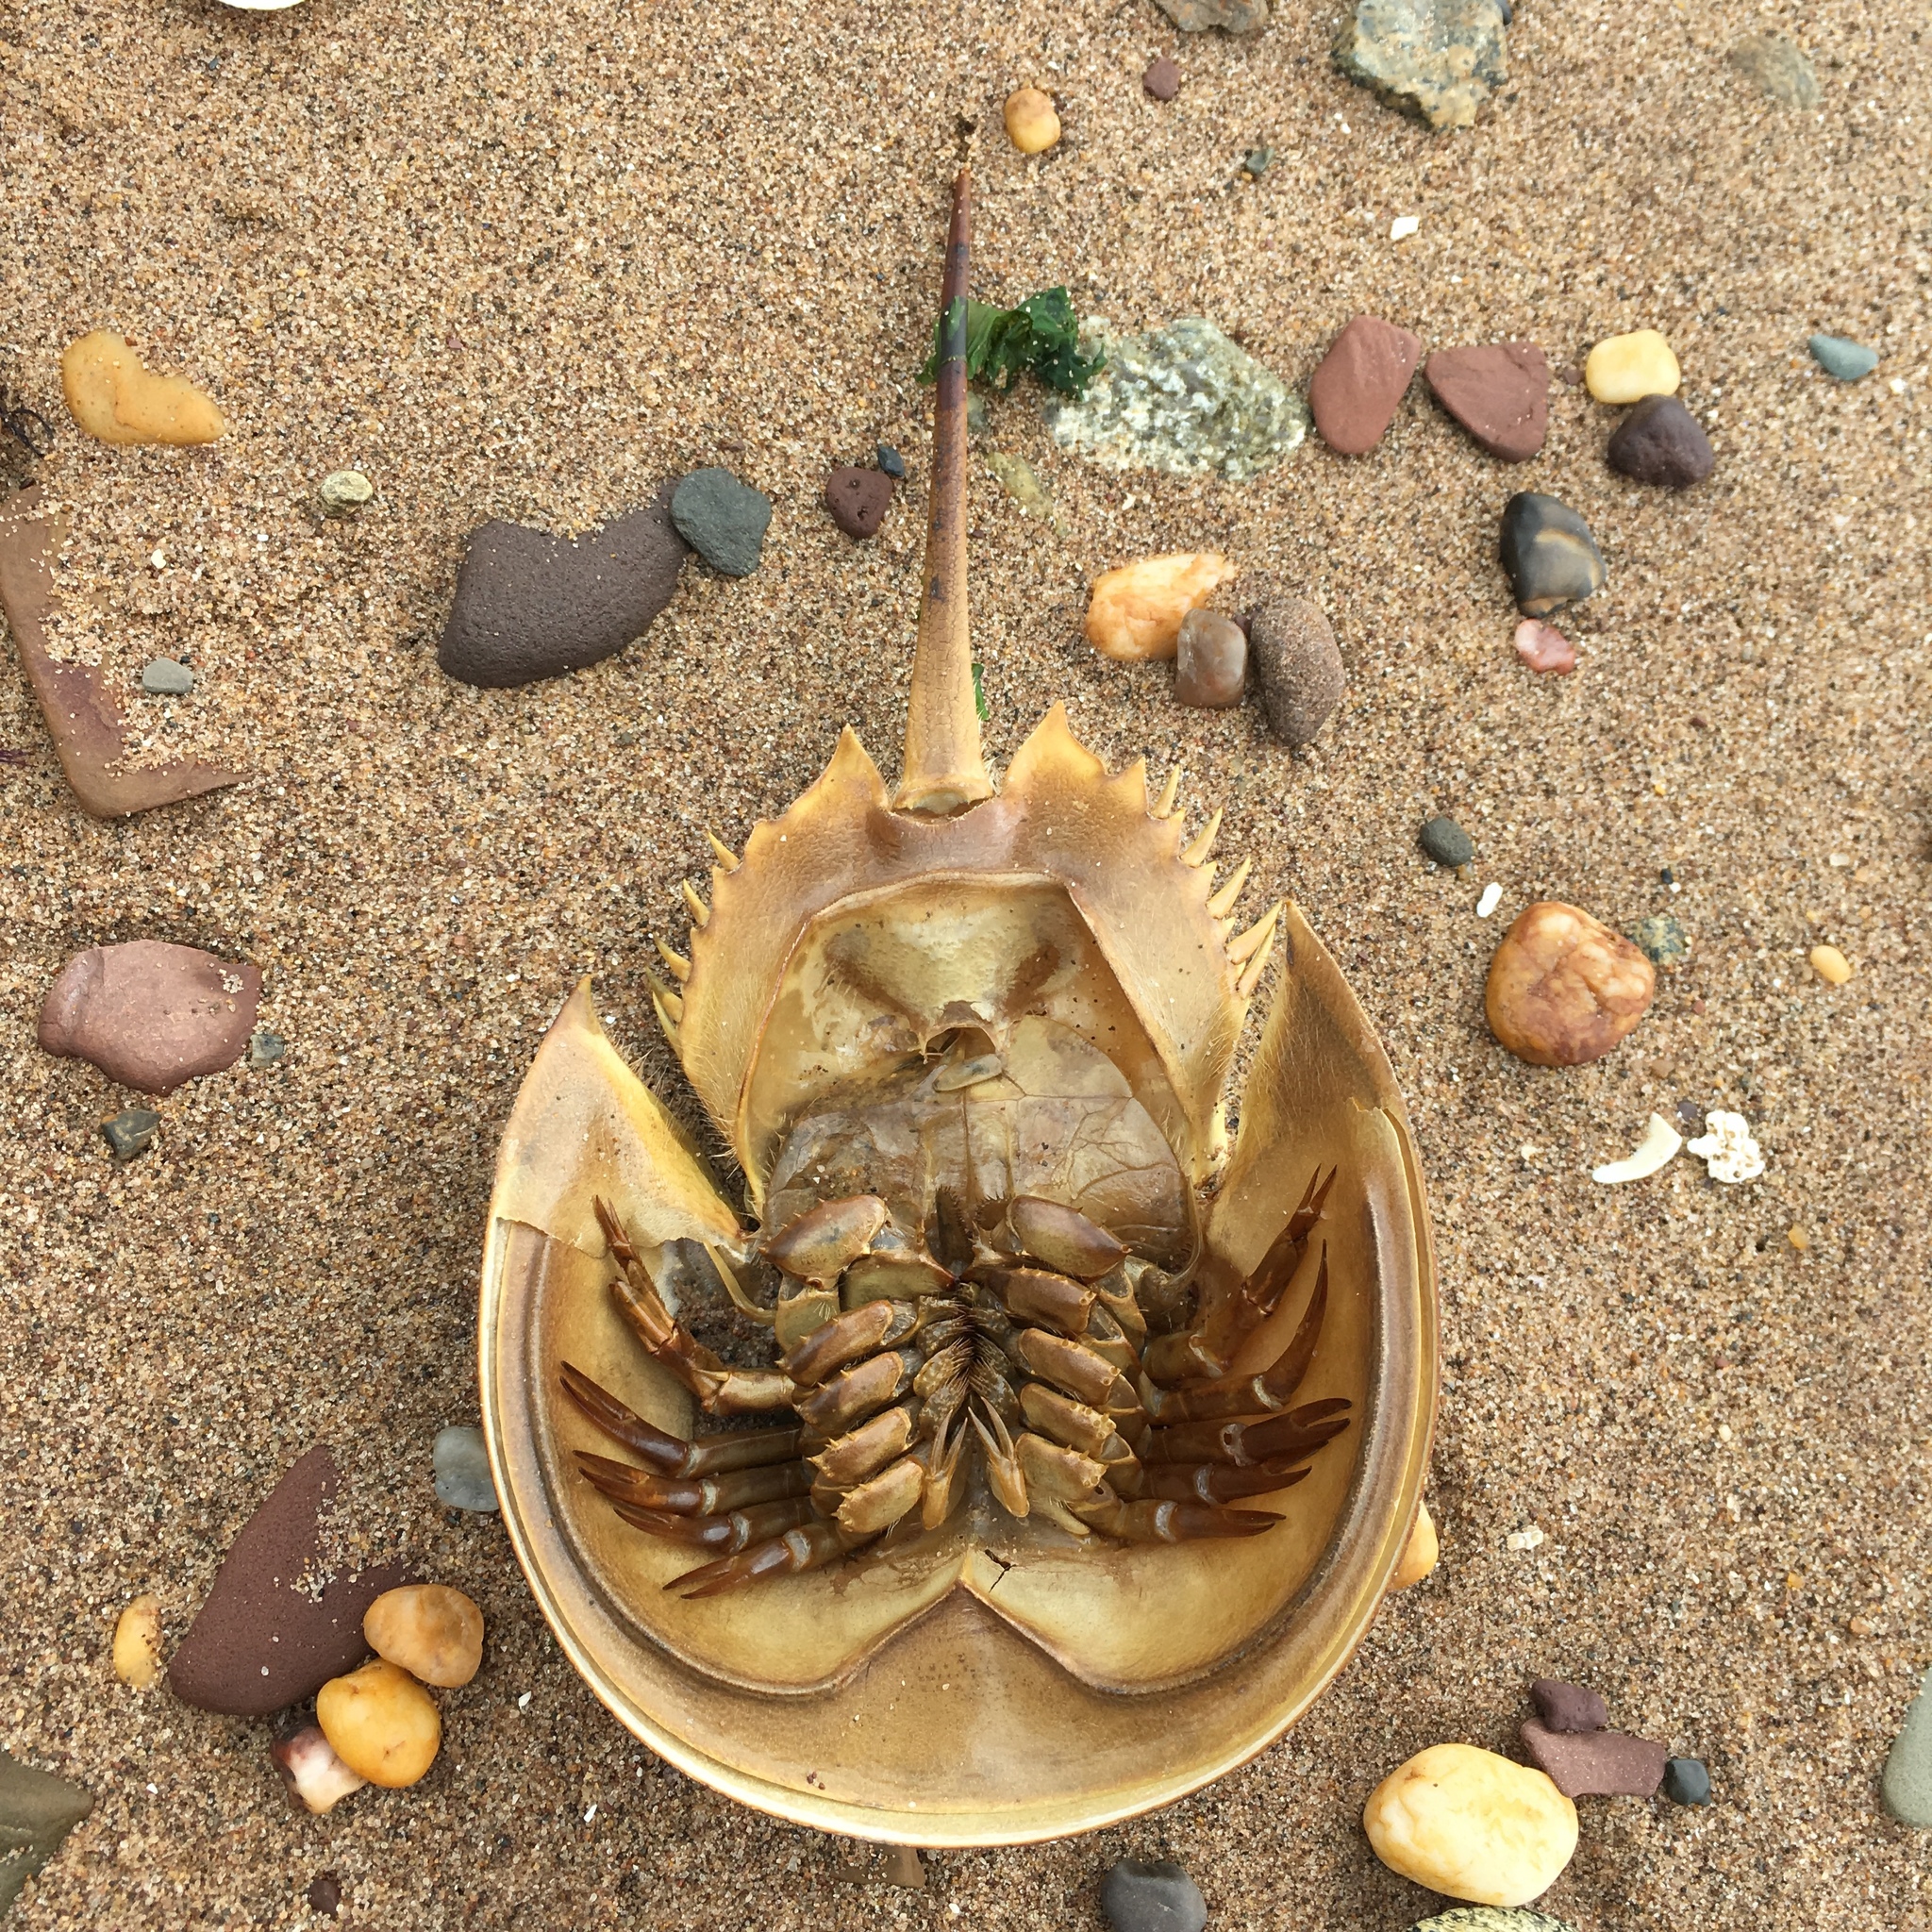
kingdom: Animalia
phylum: Arthropoda
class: Merostomata
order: Xiphosurida
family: Limulidae
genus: Limulus
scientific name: Limulus polyphemus
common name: Horseshoe crab
